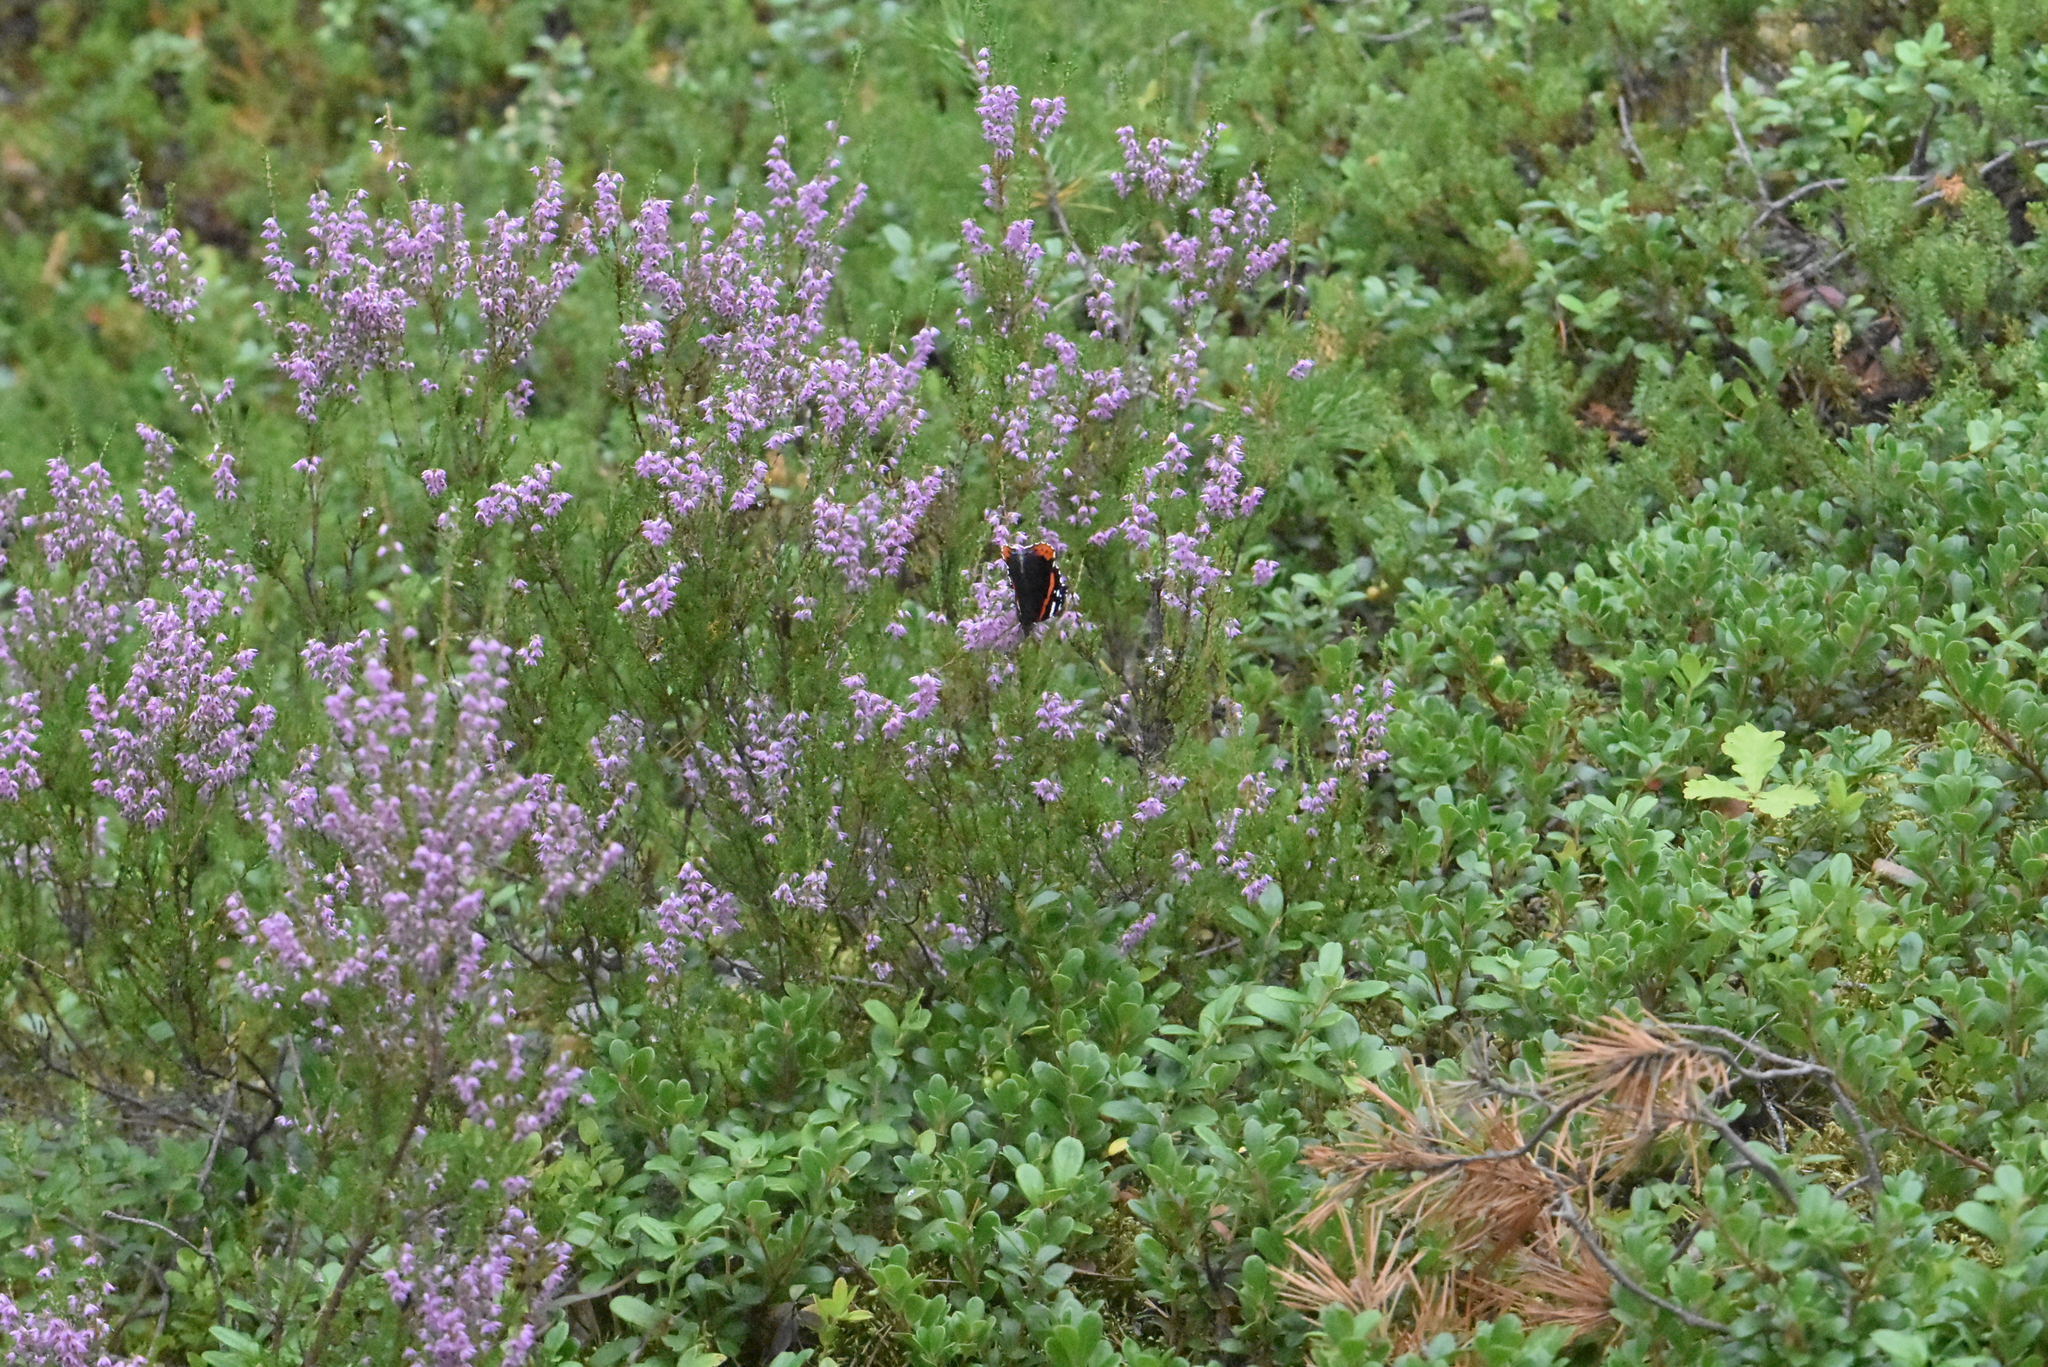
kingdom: Plantae
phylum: Tracheophyta
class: Magnoliopsida
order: Ericales
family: Ericaceae
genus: Calluna
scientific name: Calluna vulgaris
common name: Heather
